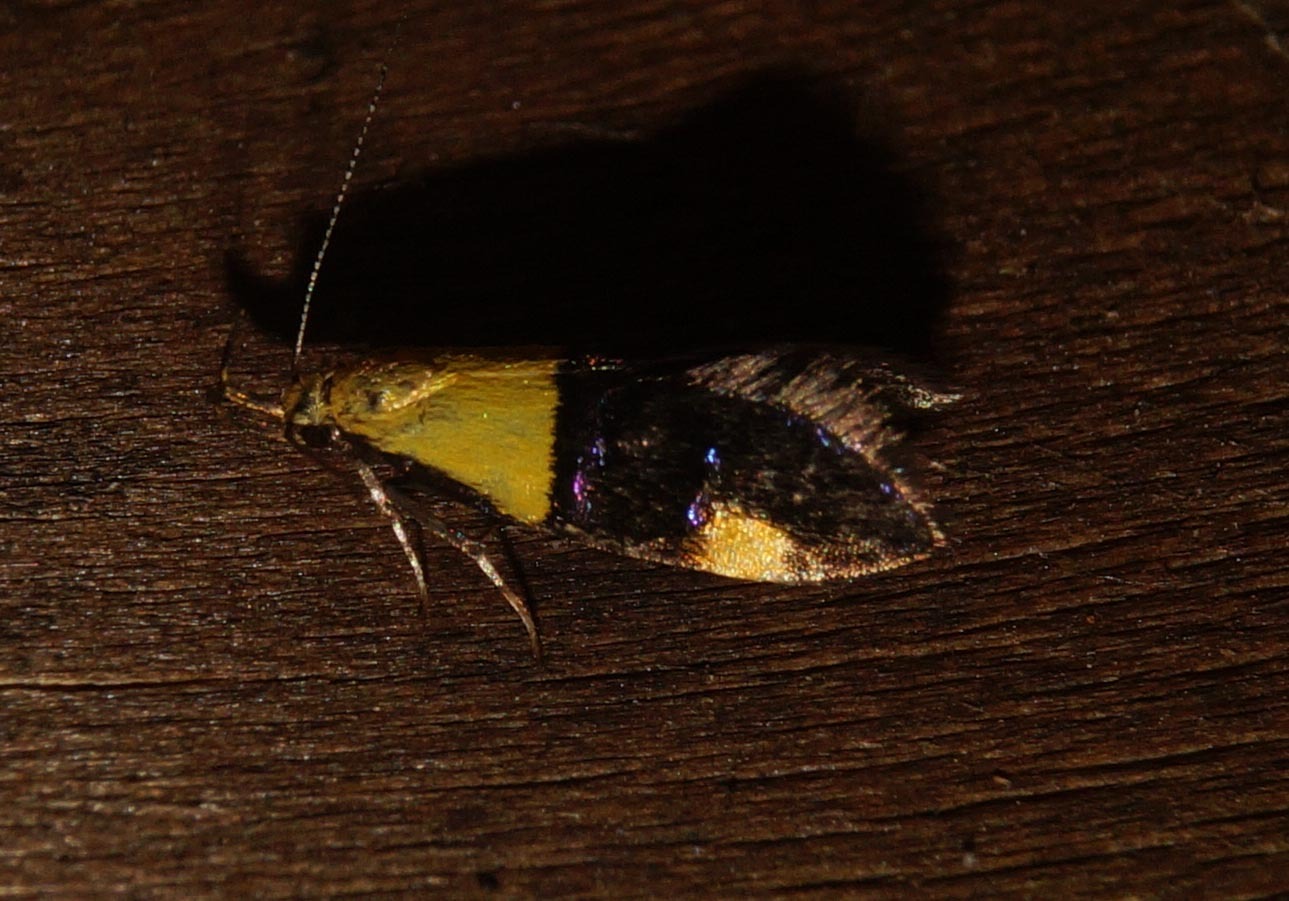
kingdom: Animalia
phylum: Arthropoda
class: Insecta
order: Lepidoptera
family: Oecophoridae
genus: Oecophora
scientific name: Oecophora bractella
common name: Gold-base tubic
